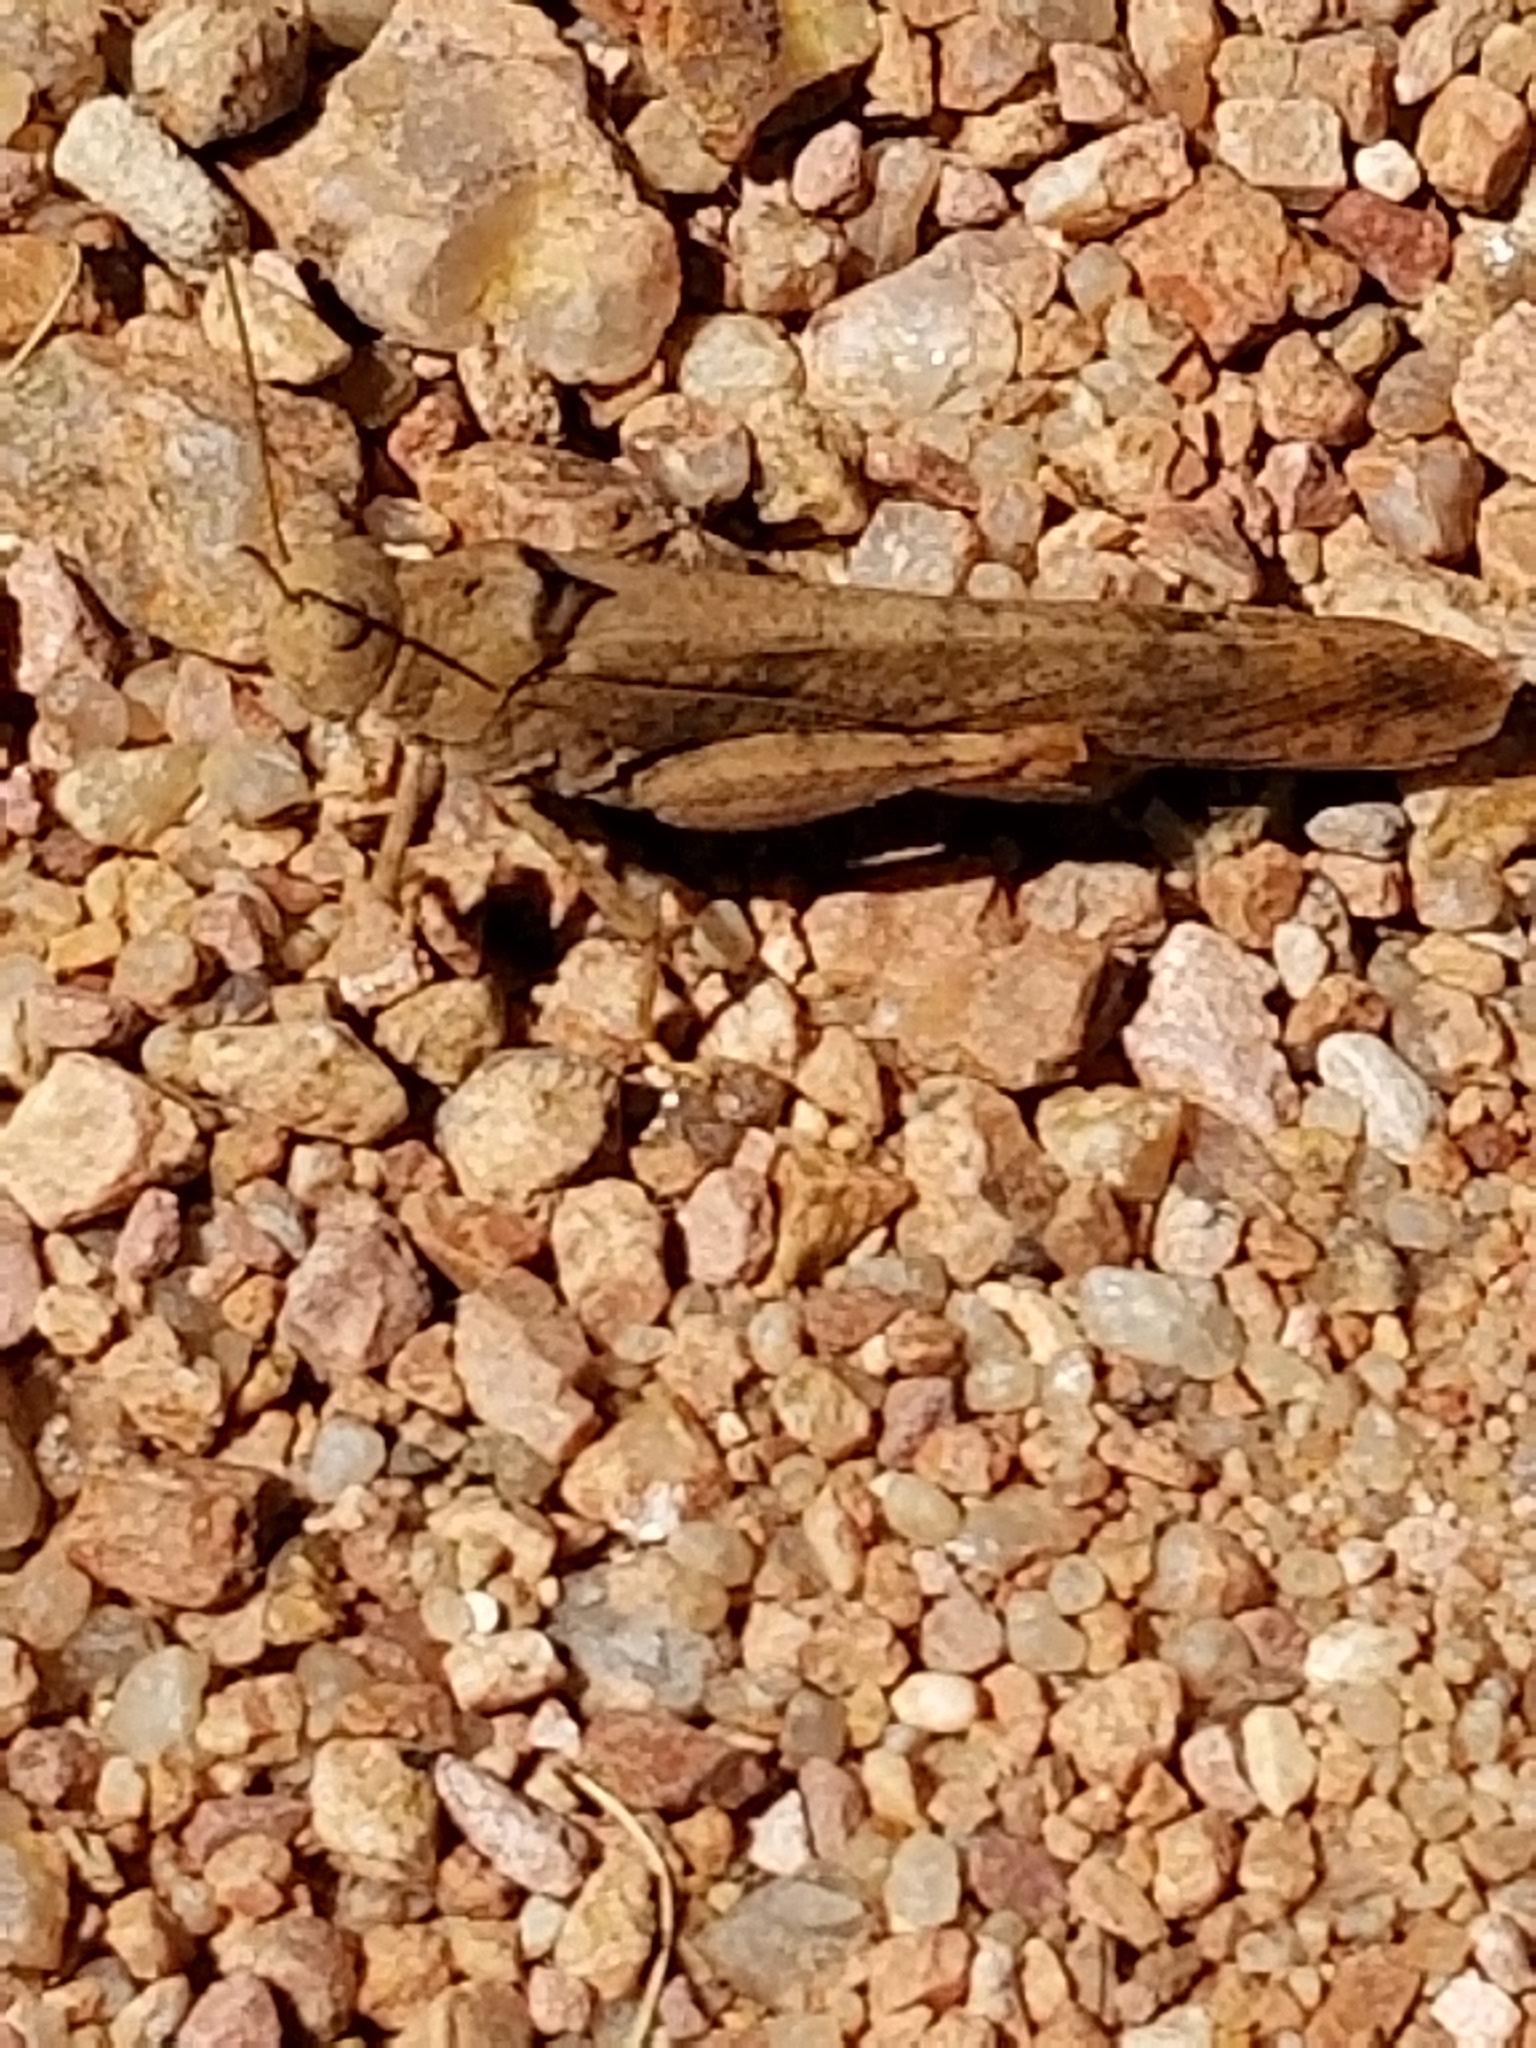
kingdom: Animalia
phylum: Arthropoda
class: Insecta
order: Orthoptera
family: Acrididae
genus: Dissosteira
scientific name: Dissosteira carolina
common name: Carolina grasshopper
